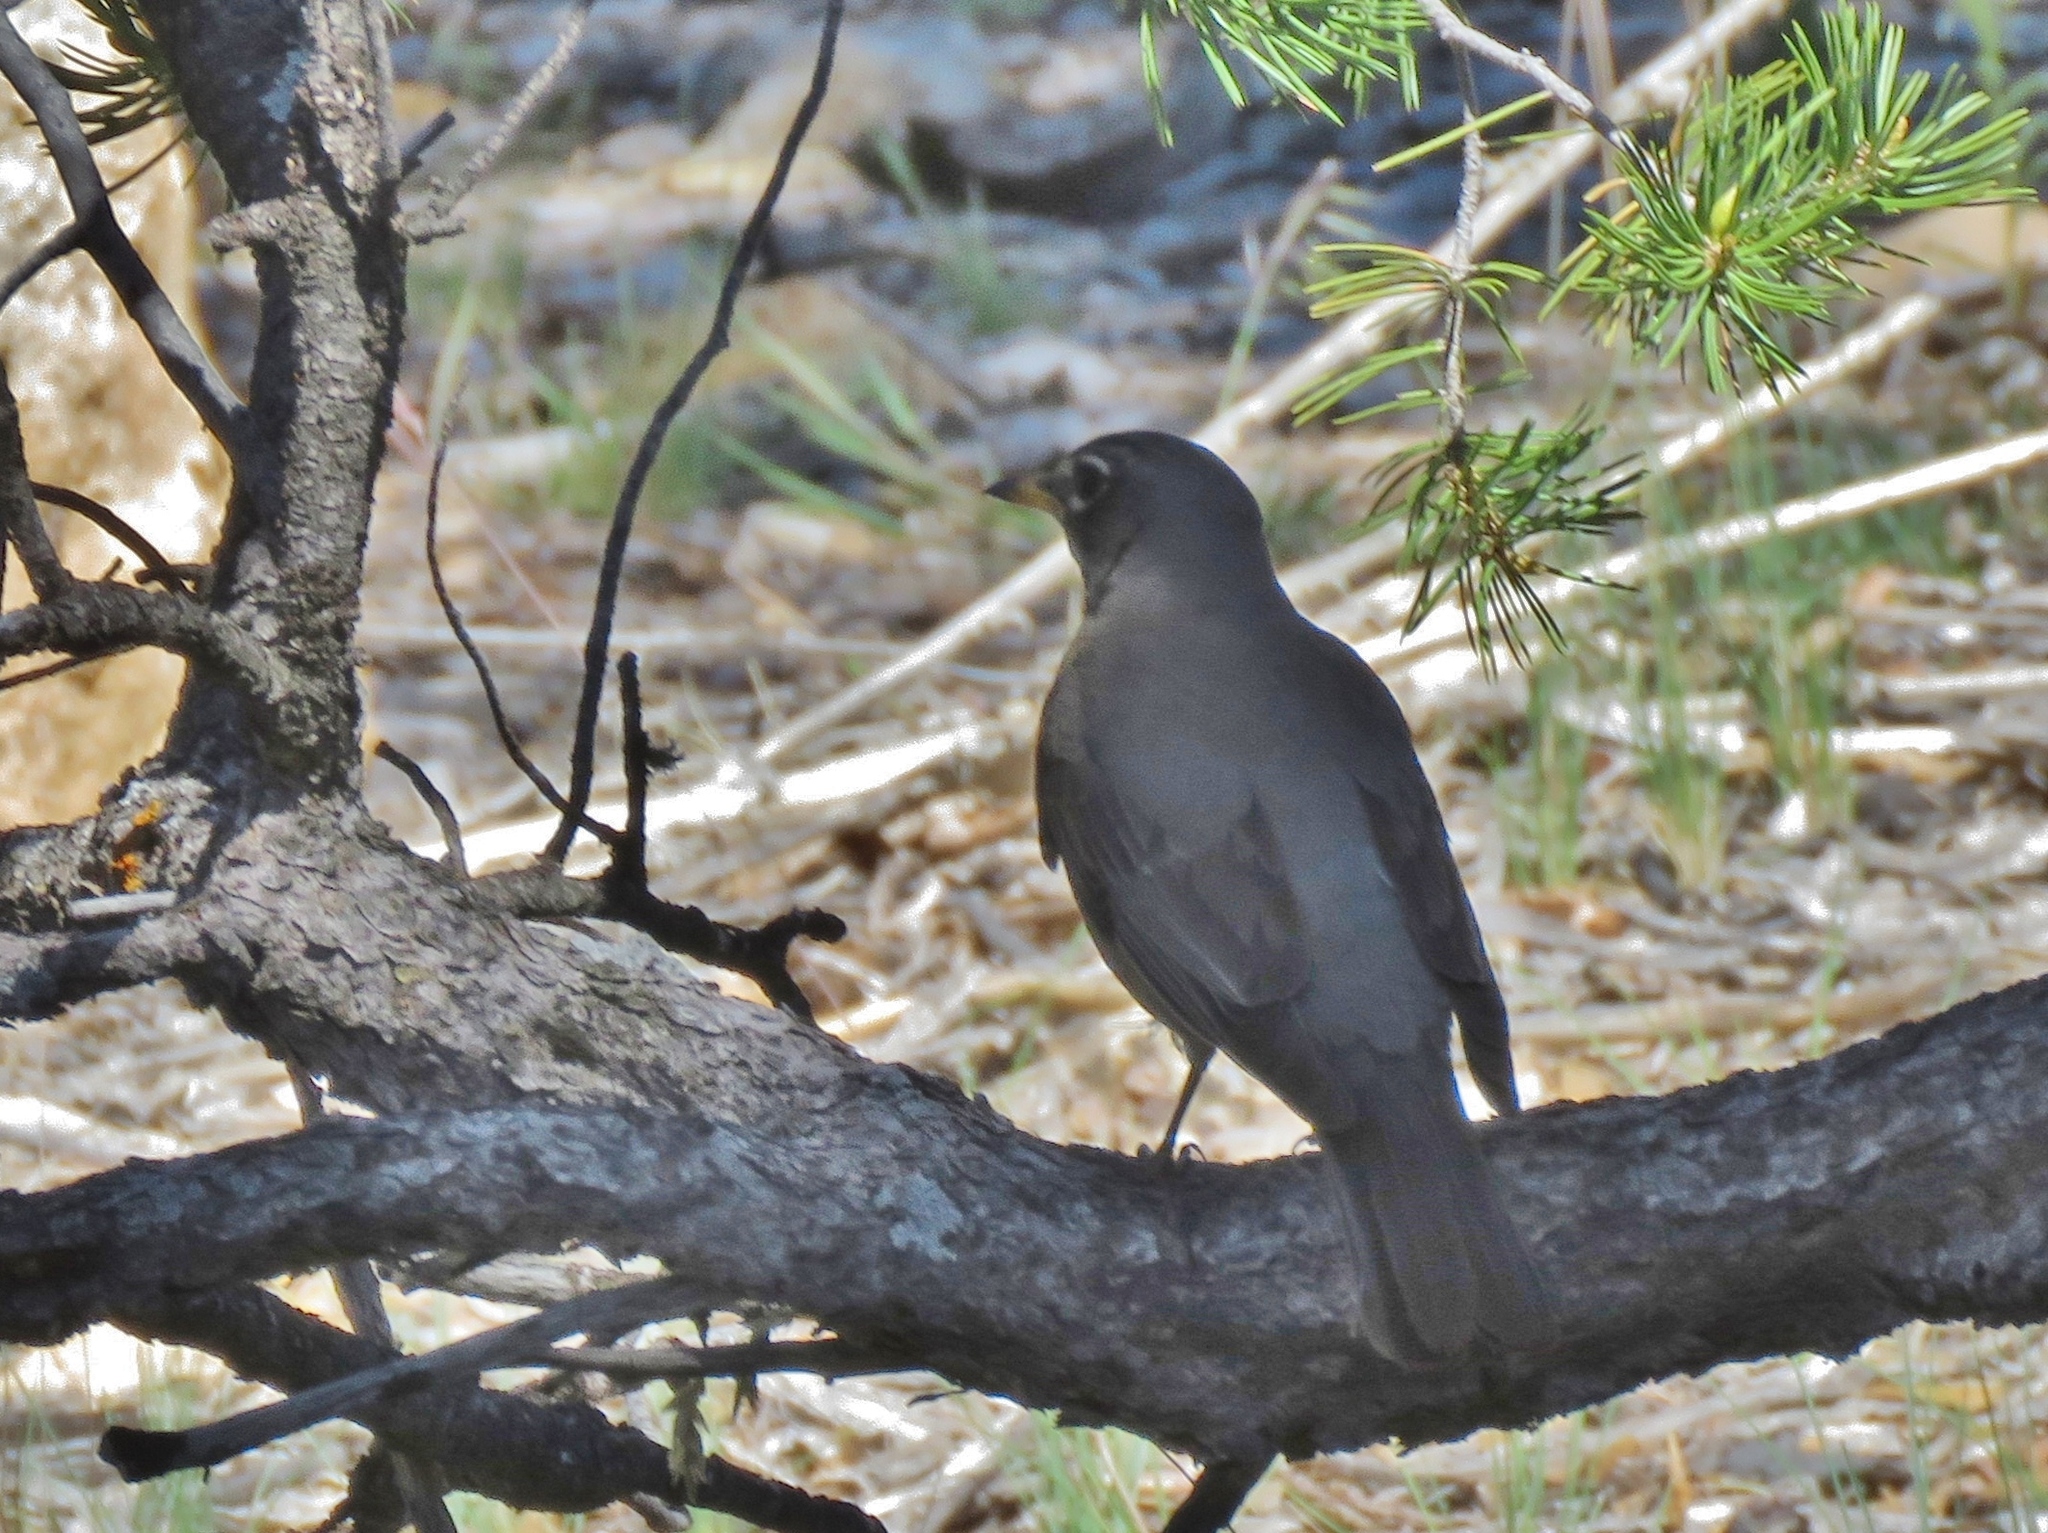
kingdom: Animalia
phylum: Chordata
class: Aves
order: Passeriformes
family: Turdidae
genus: Turdus
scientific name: Turdus migratorius
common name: American robin
